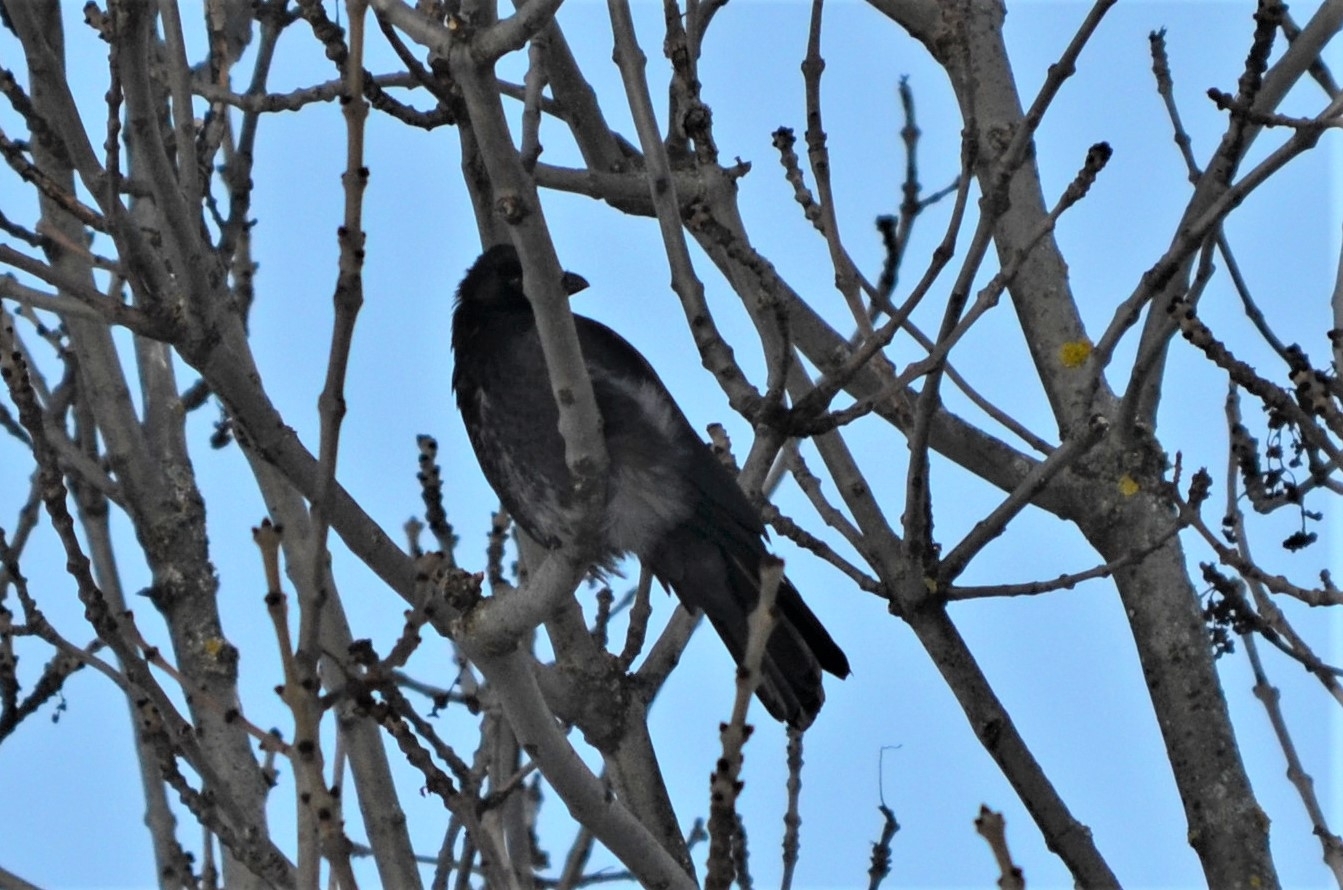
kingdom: Animalia
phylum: Chordata
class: Aves
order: Passeriformes
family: Corvidae
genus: Corvus
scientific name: Corvus
